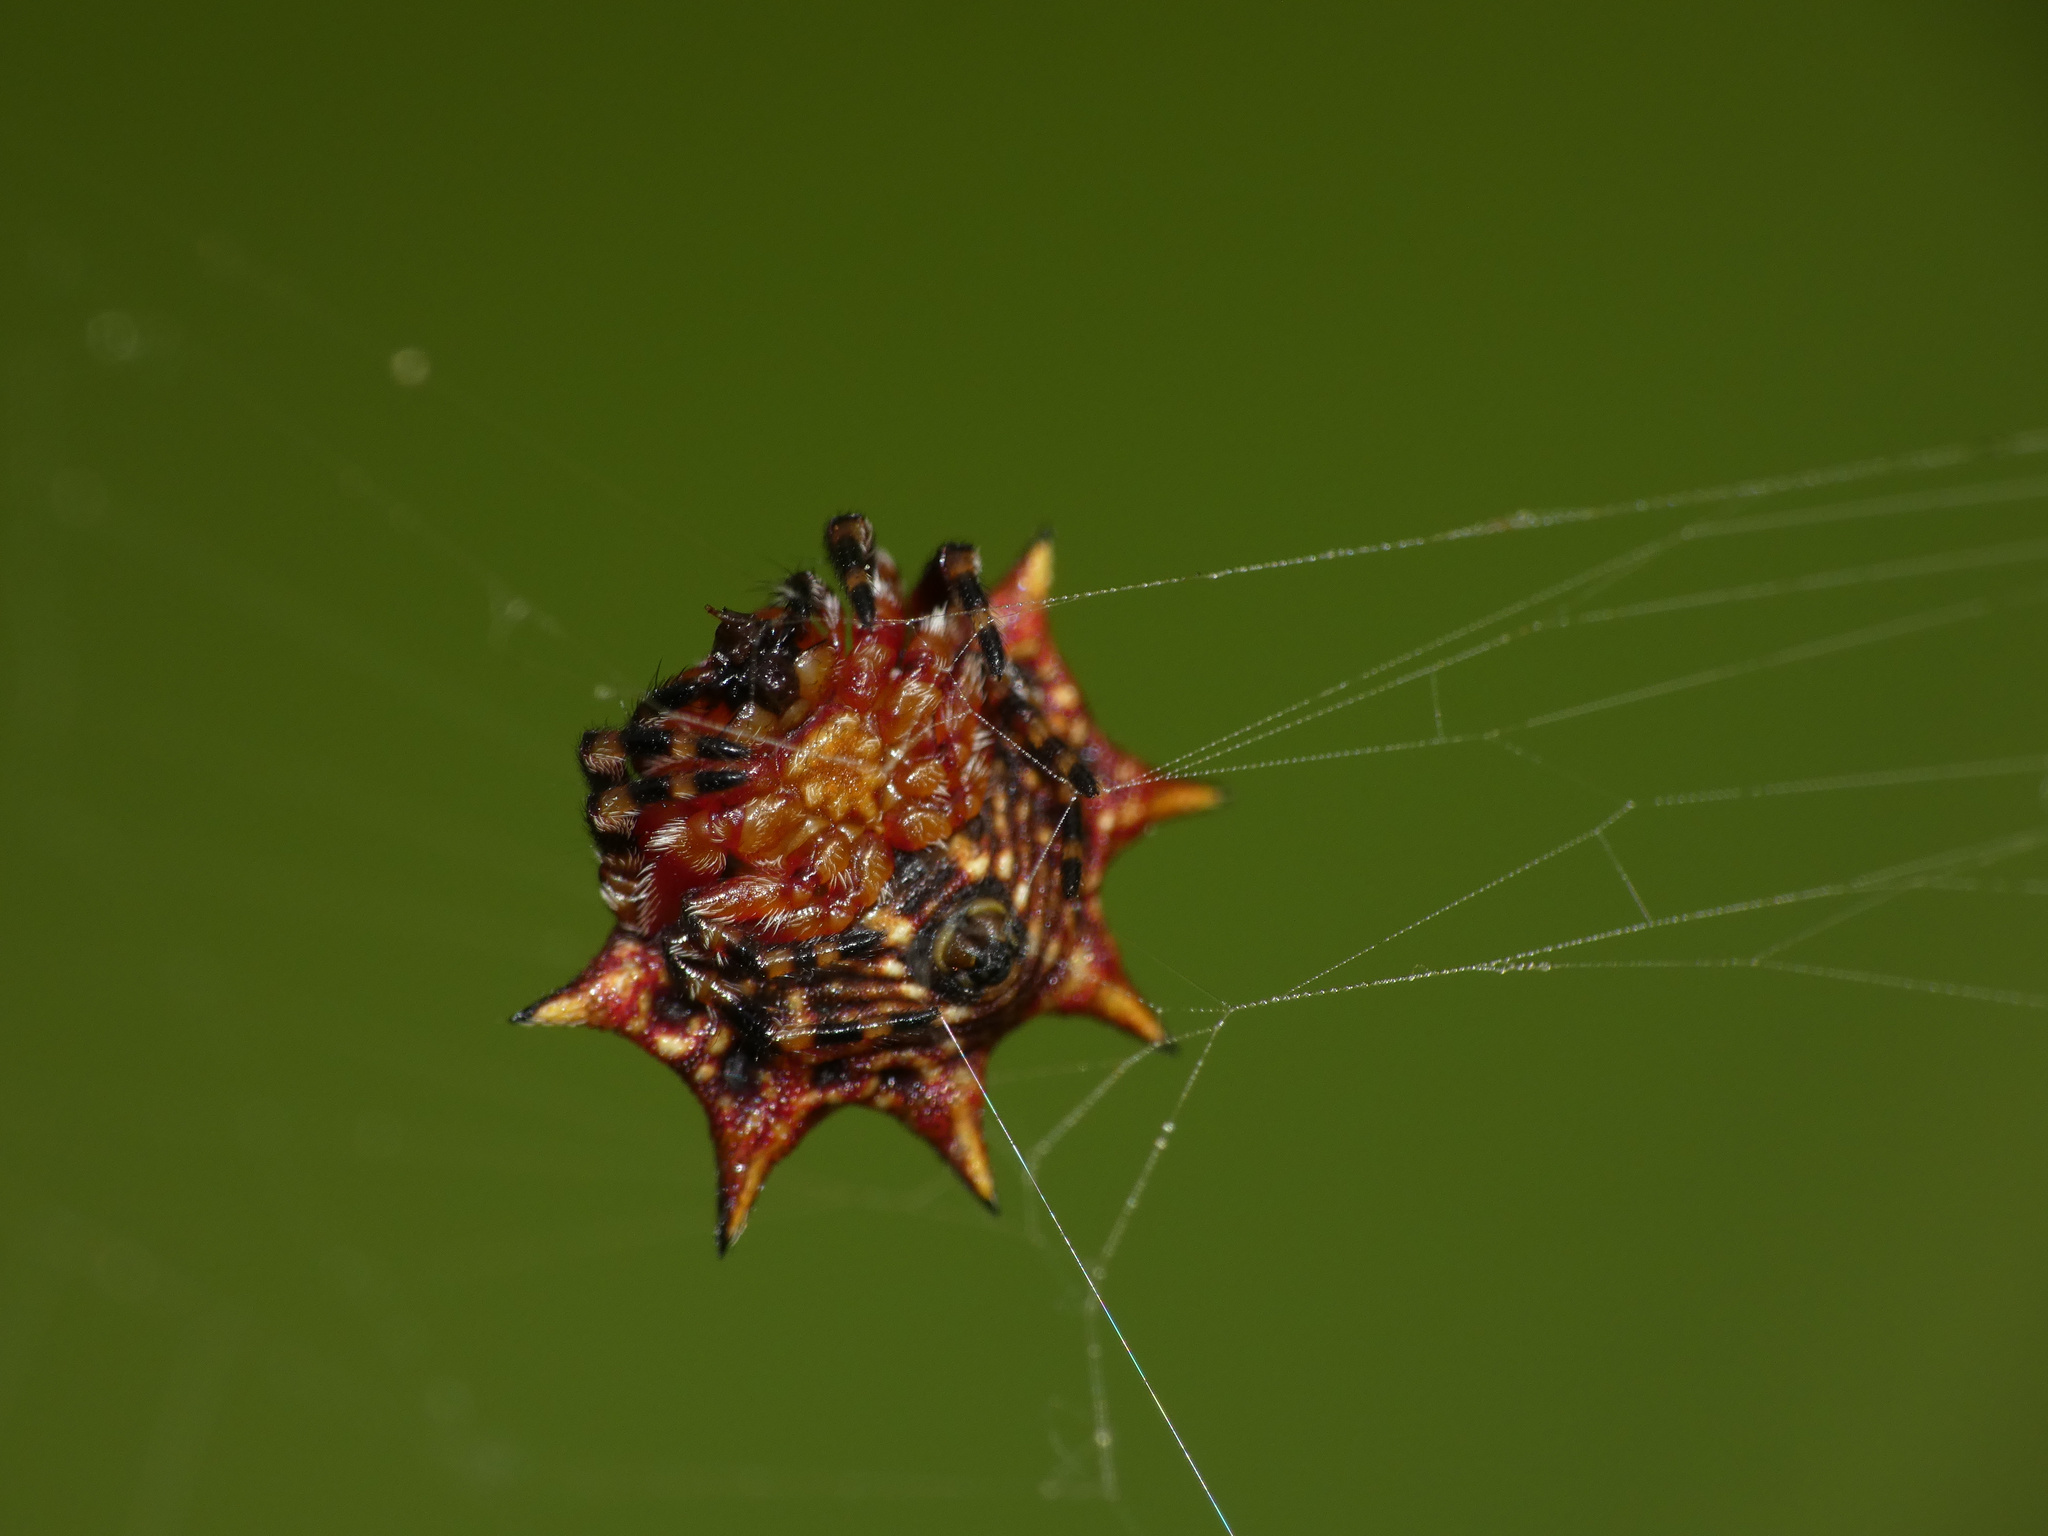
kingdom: Animalia
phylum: Arthropoda
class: Arachnida
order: Araneae
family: Araneidae
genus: Isoxya
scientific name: Isoxya stuhlmanni
